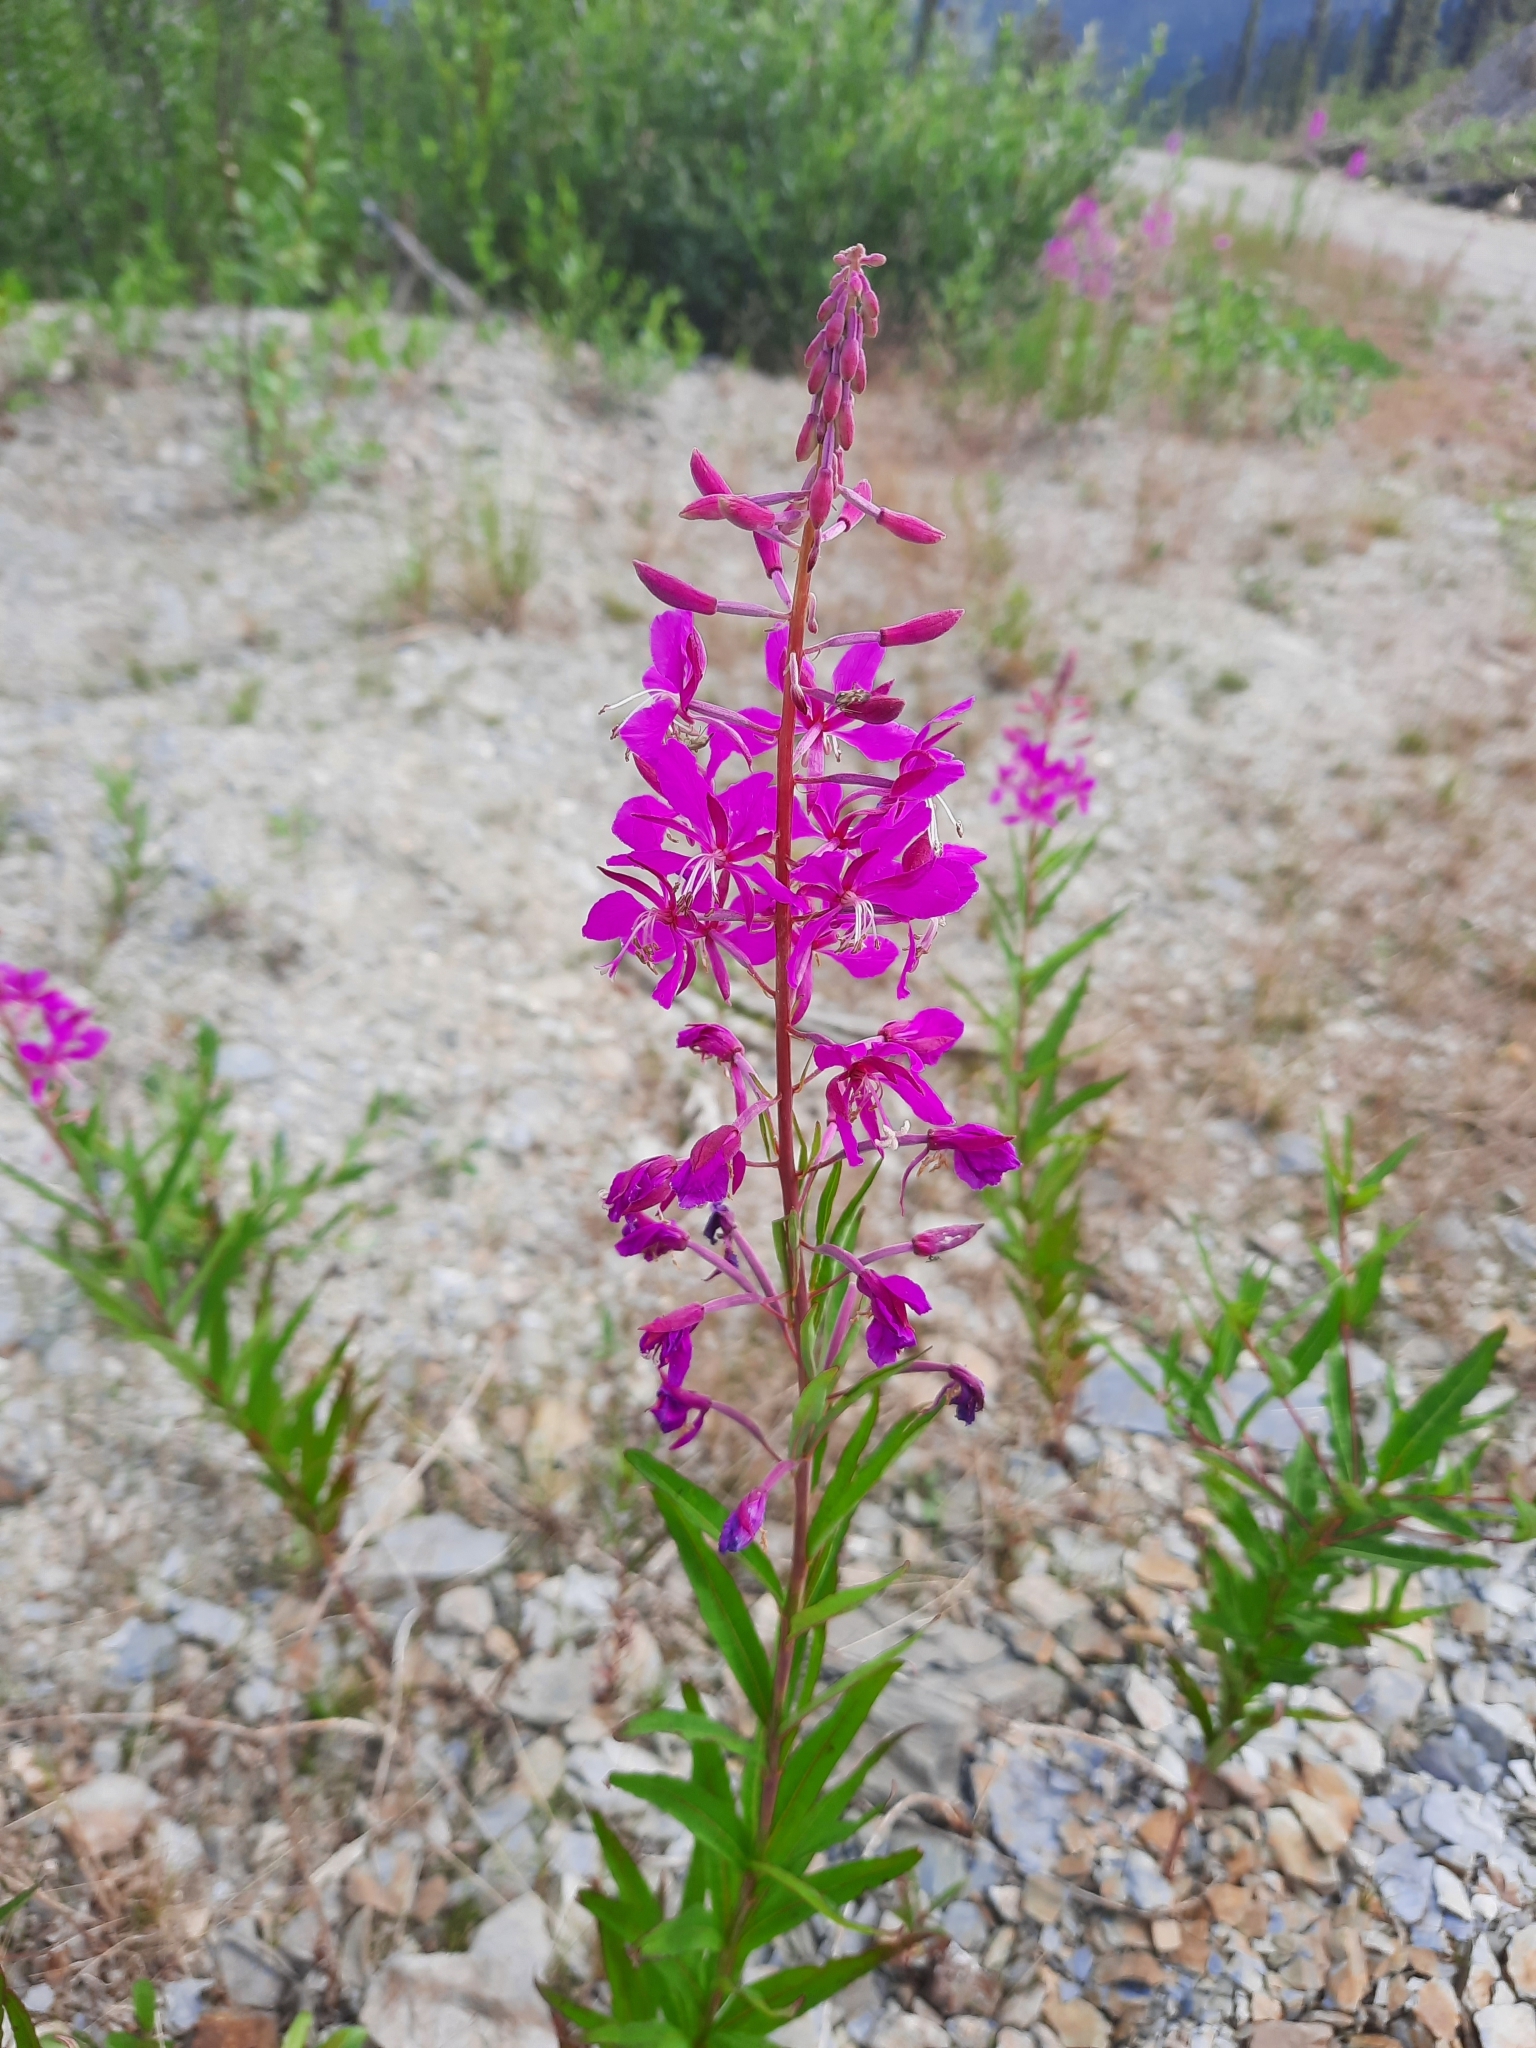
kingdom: Plantae
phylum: Tracheophyta
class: Magnoliopsida
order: Myrtales
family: Onagraceae
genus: Chamaenerion
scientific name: Chamaenerion angustifolium
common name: Fireweed
